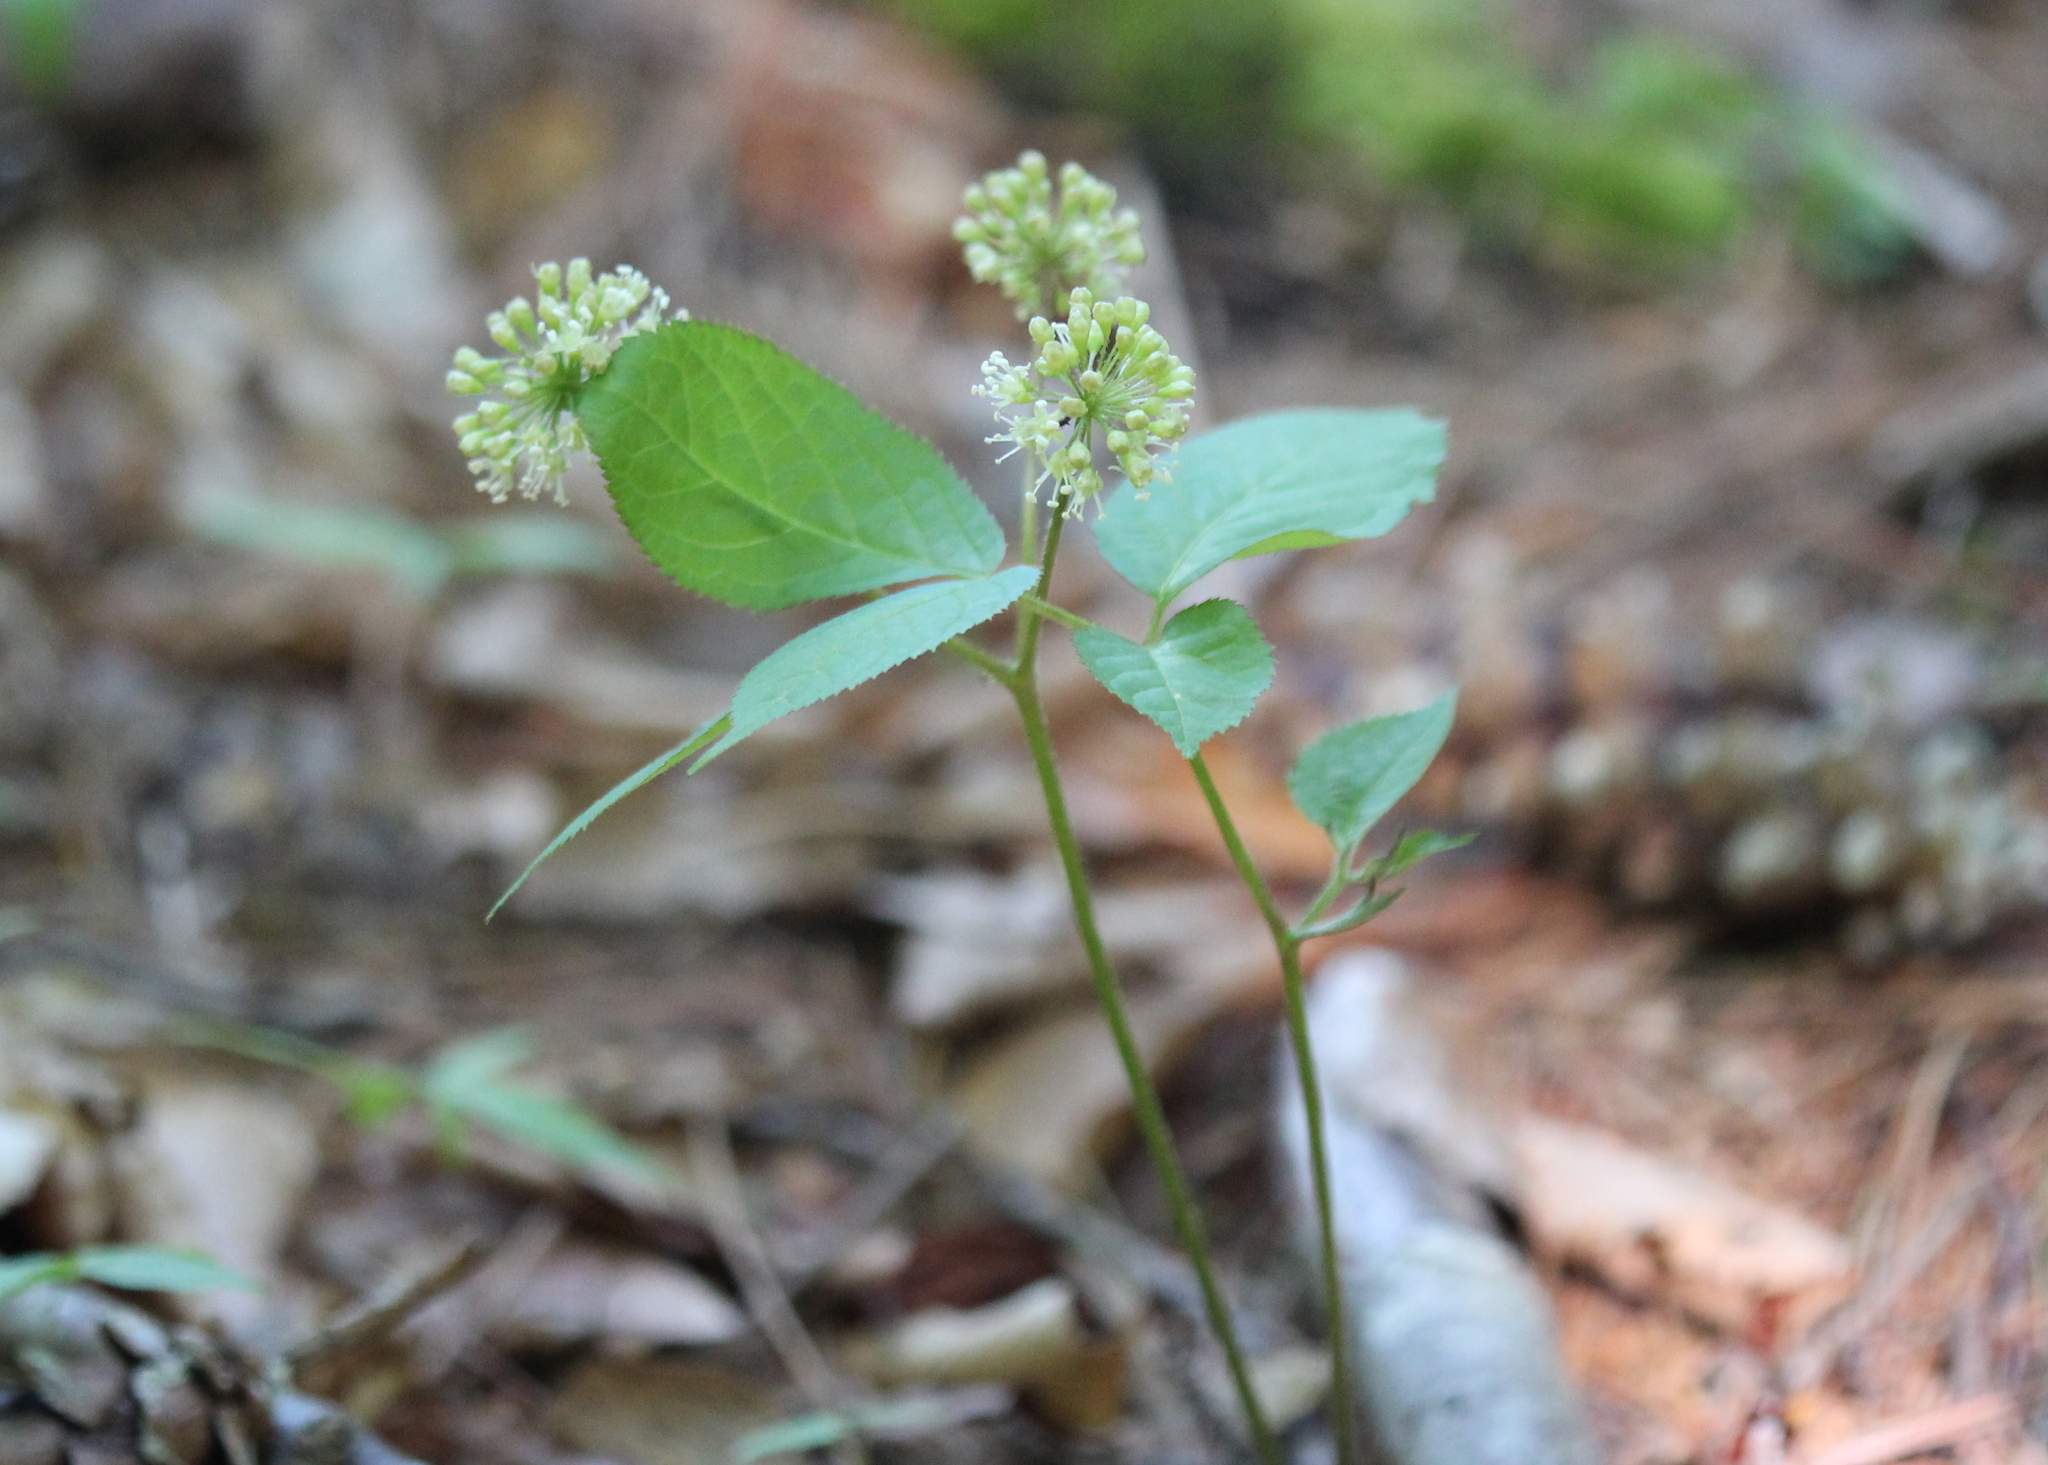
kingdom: Plantae
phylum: Tracheophyta
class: Magnoliopsida
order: Apiales
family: Araliaceae
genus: Aralia
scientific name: Aralia nudicaulis
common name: Wild sarsaparilla
